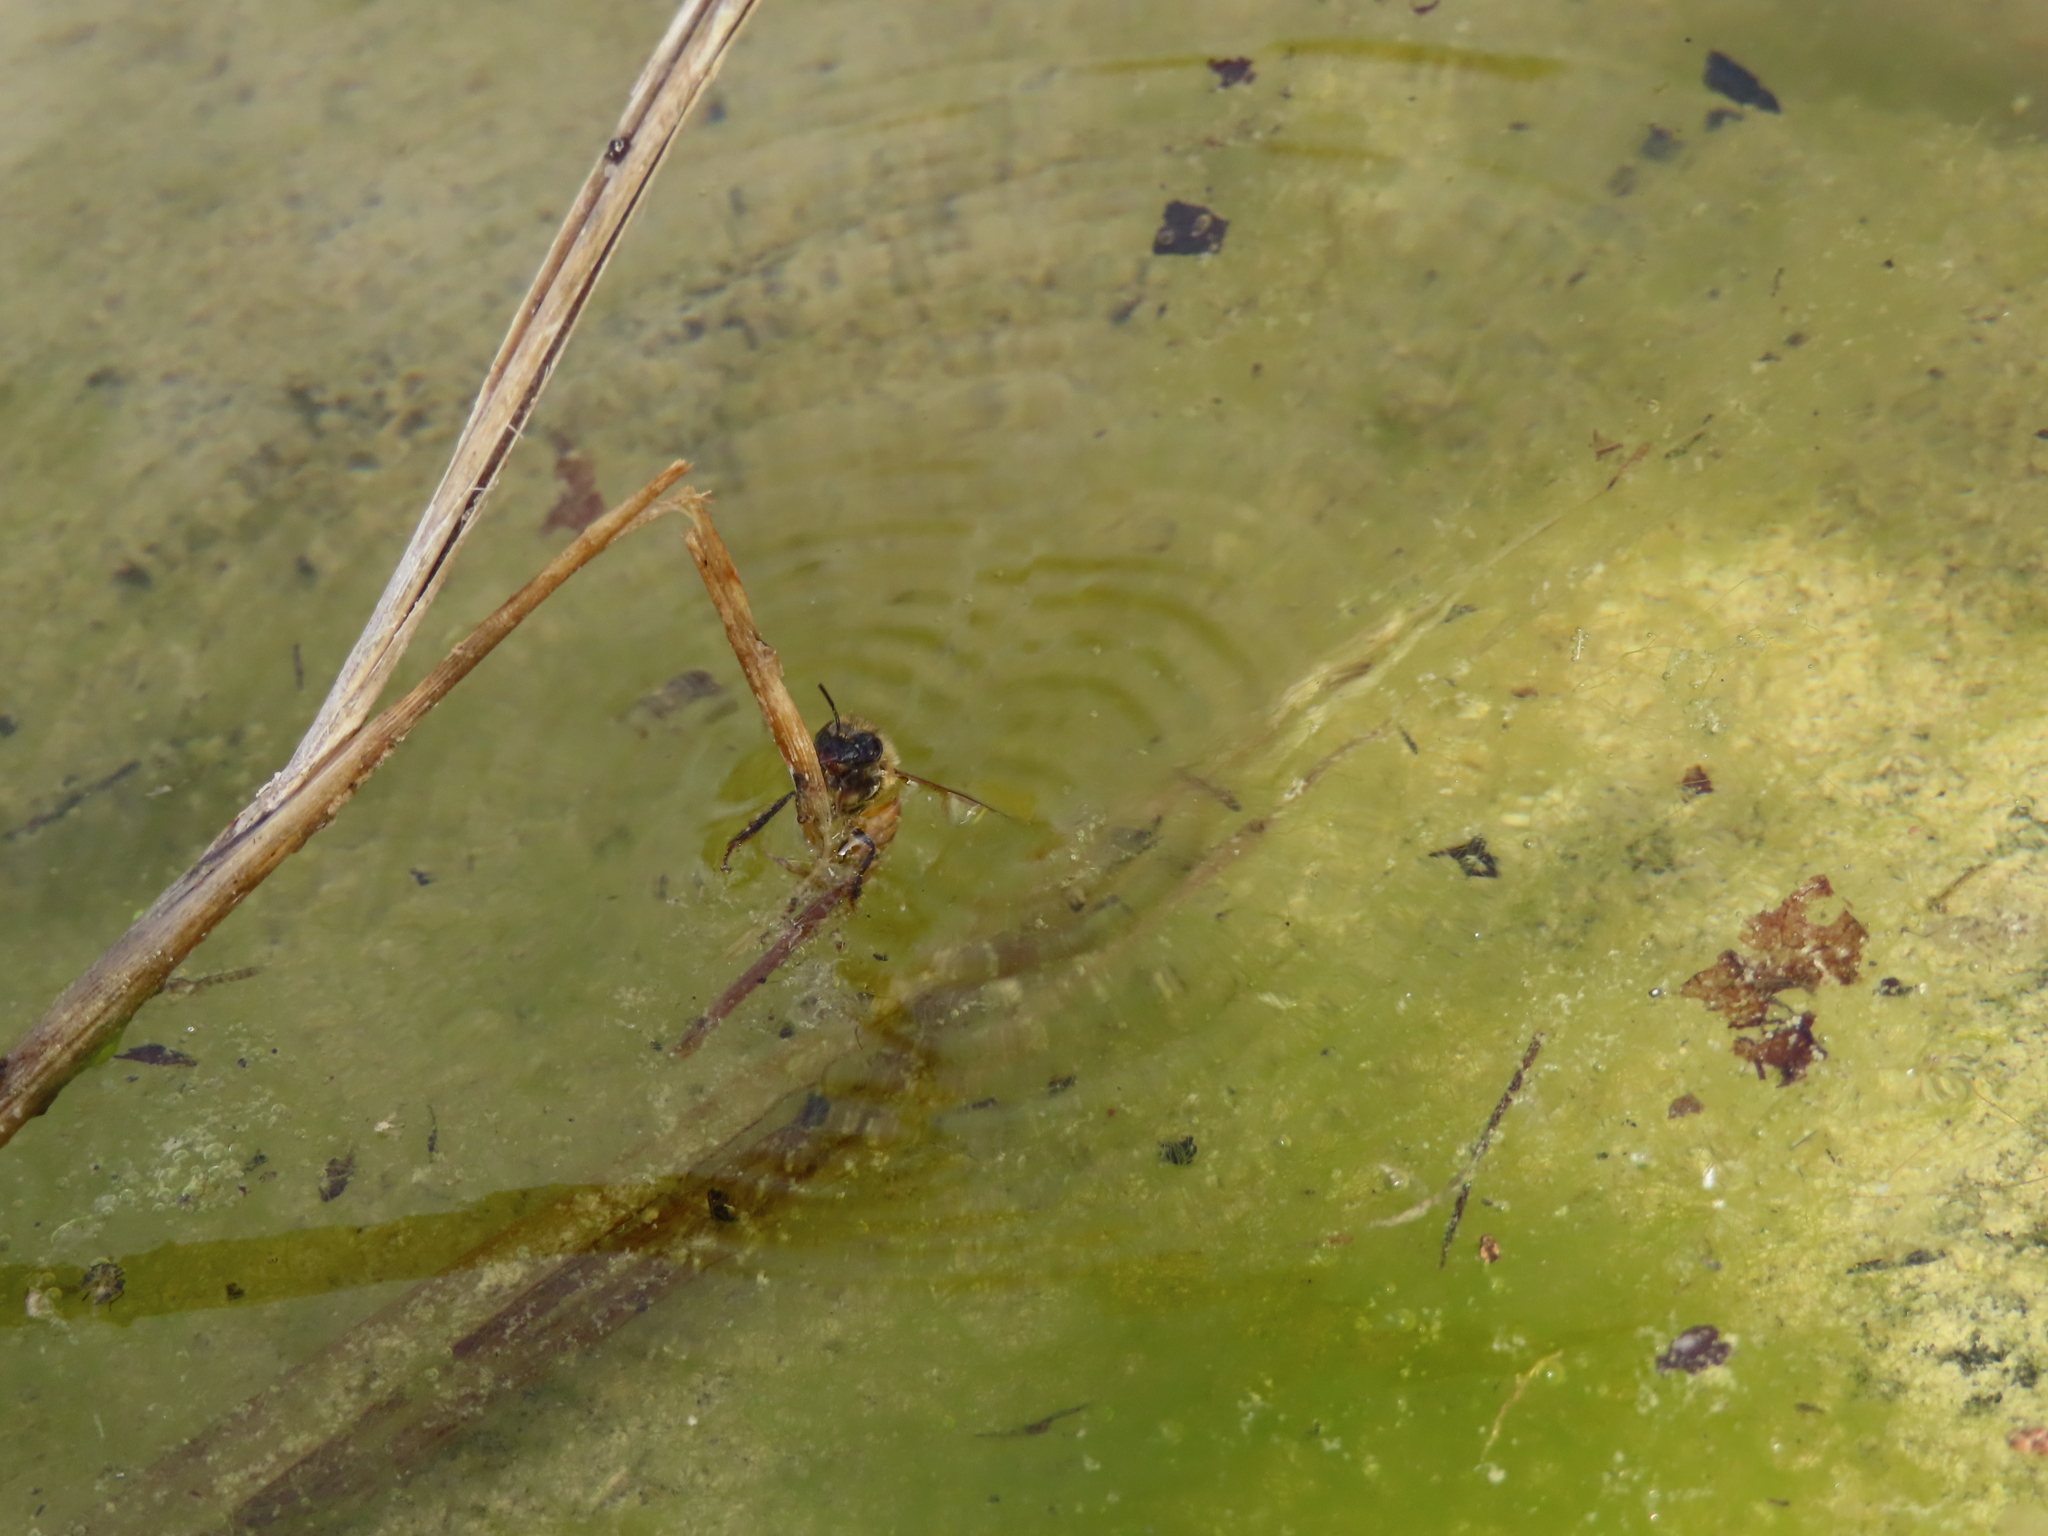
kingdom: Animalia
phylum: Arthropoda
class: Insecta
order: Hymenoptera
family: Apidae
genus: Apis
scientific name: Apis mellifera
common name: Honey bee
